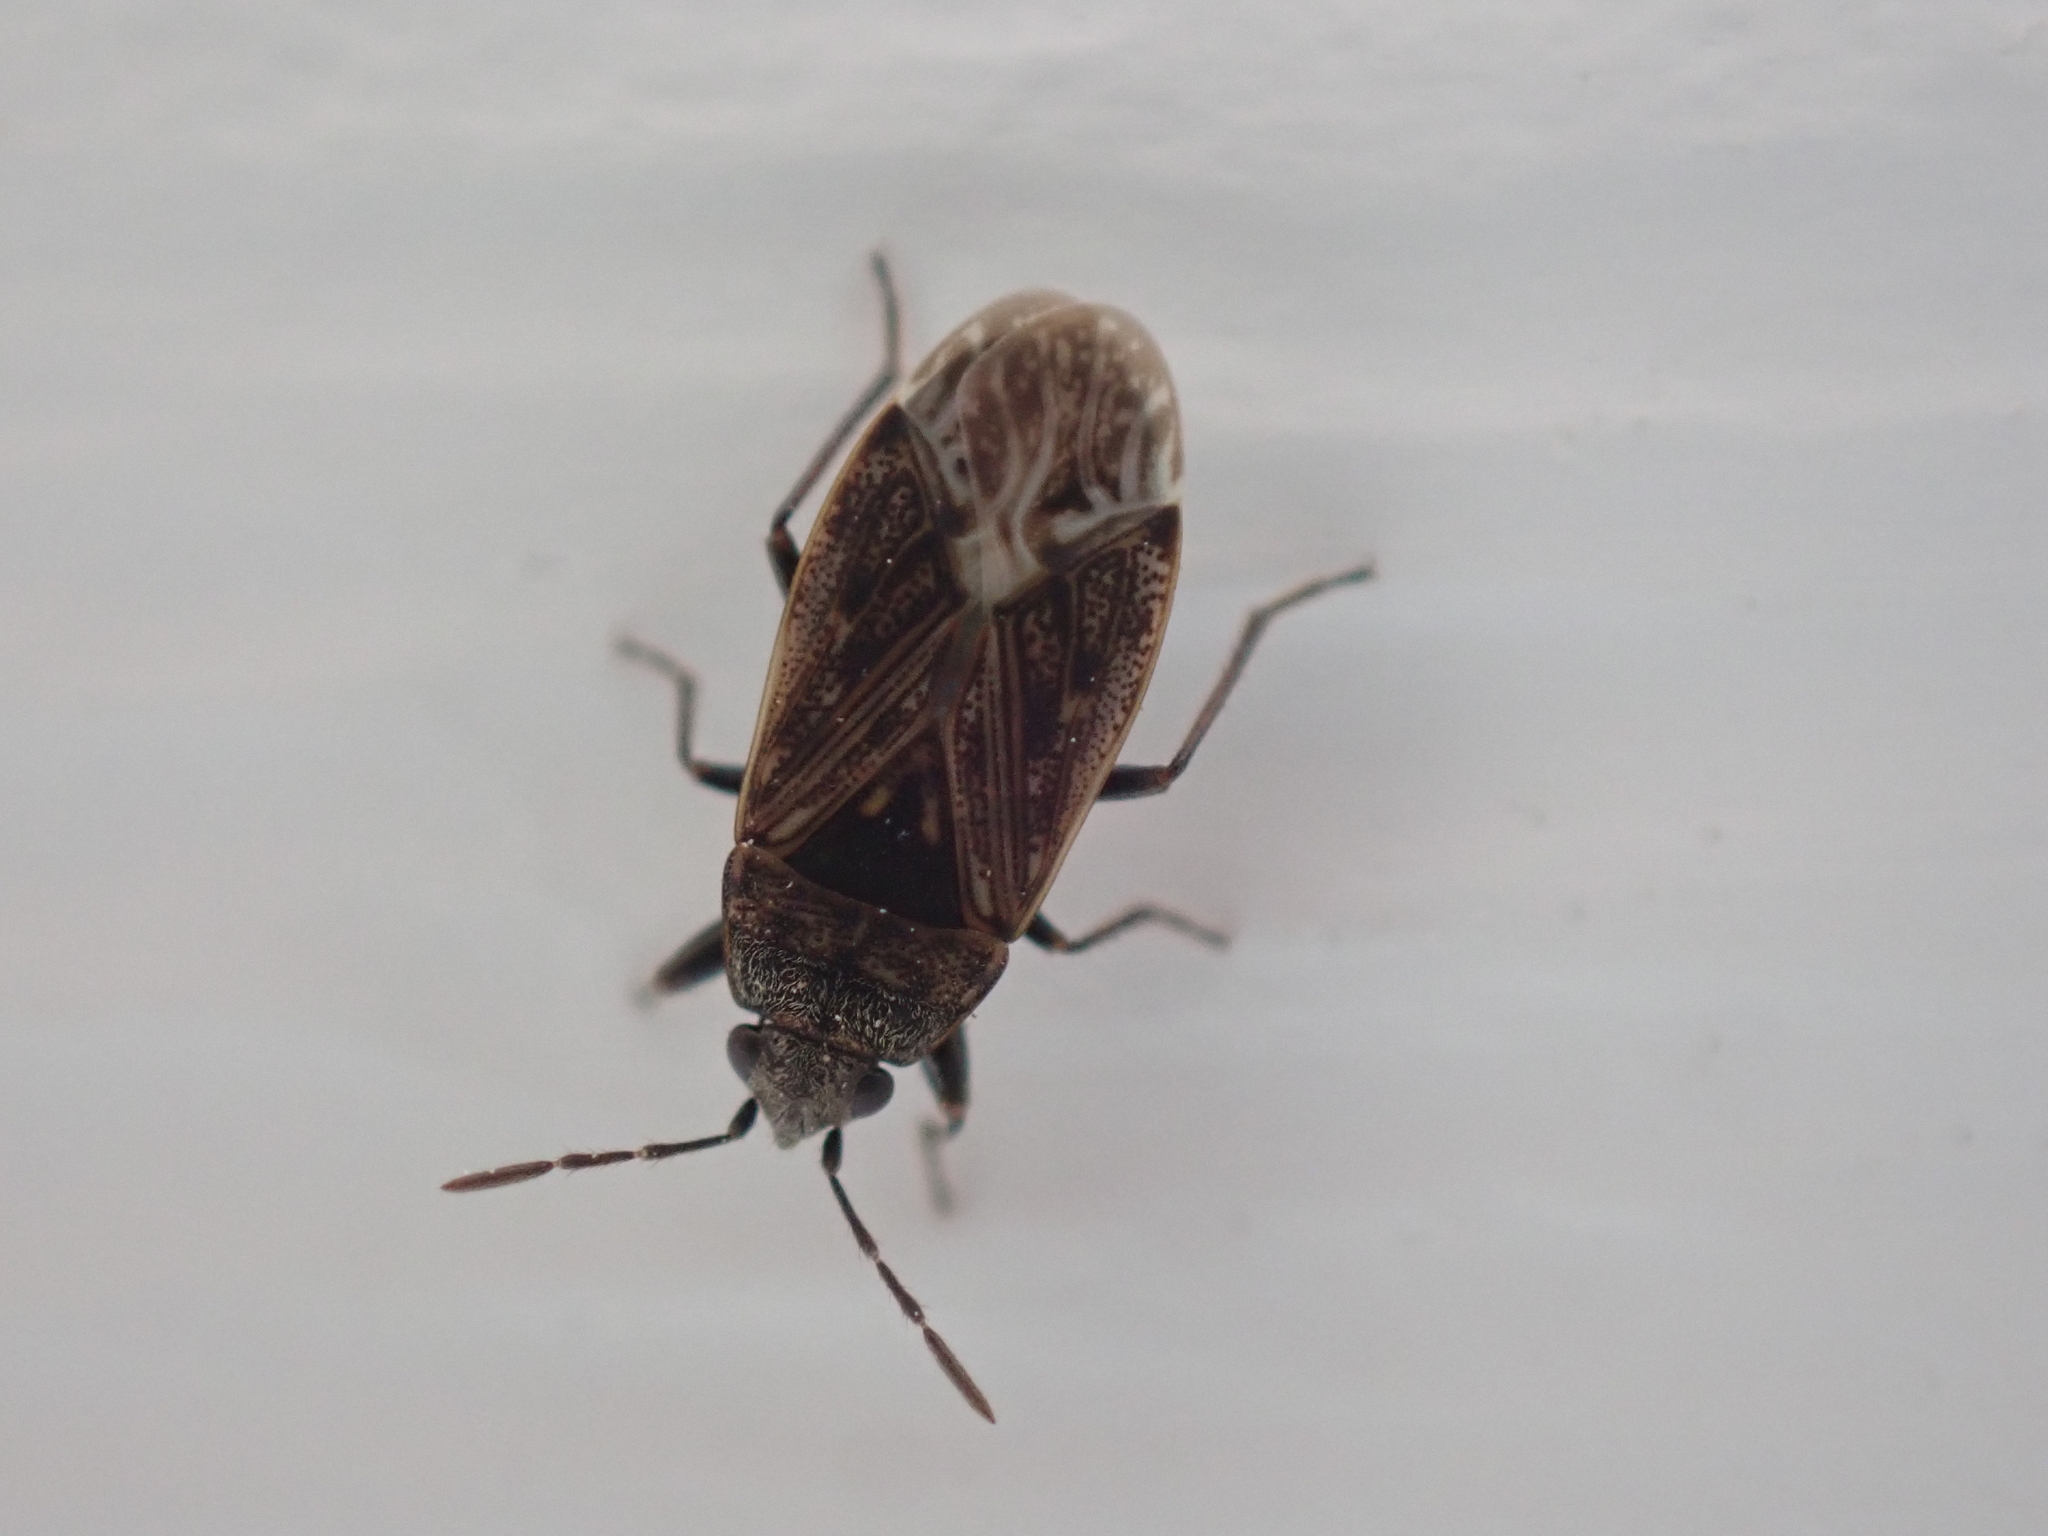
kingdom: Animalia
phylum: Arthropoda
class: Insecta
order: Hemiptera
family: Rhyparochromidae
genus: Peritrechus
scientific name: Peritrechus convivus
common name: Seed bug
